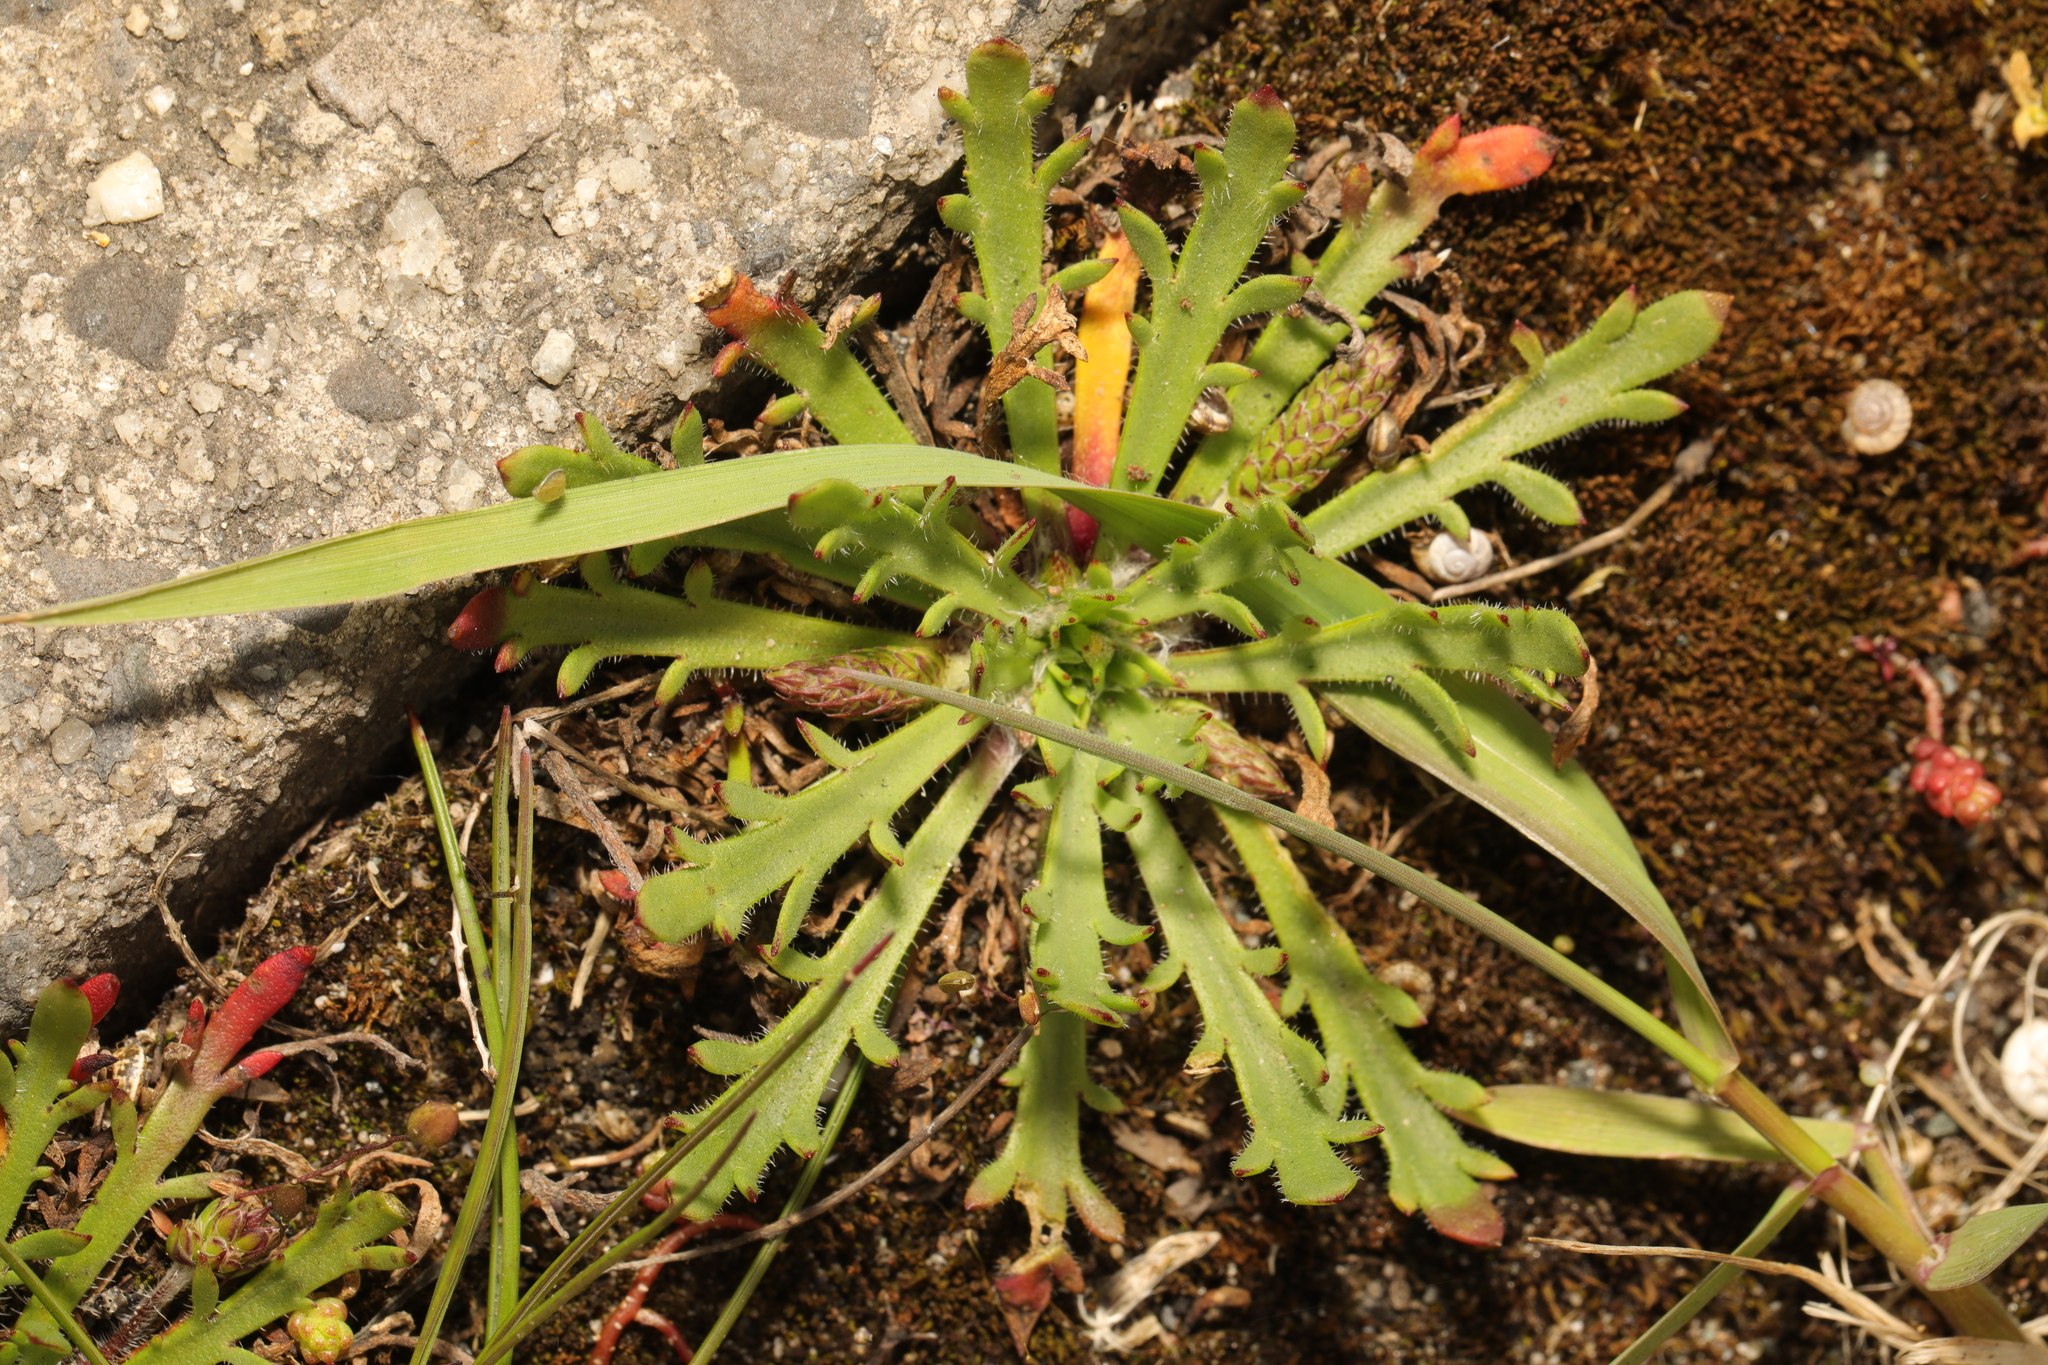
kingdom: Plantae
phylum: Tracheophyta
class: Magnoliopsida
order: Lamiales
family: Plantaginaceae
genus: Plantago
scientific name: Plantago coronopus
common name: Buck's-horn plantain
